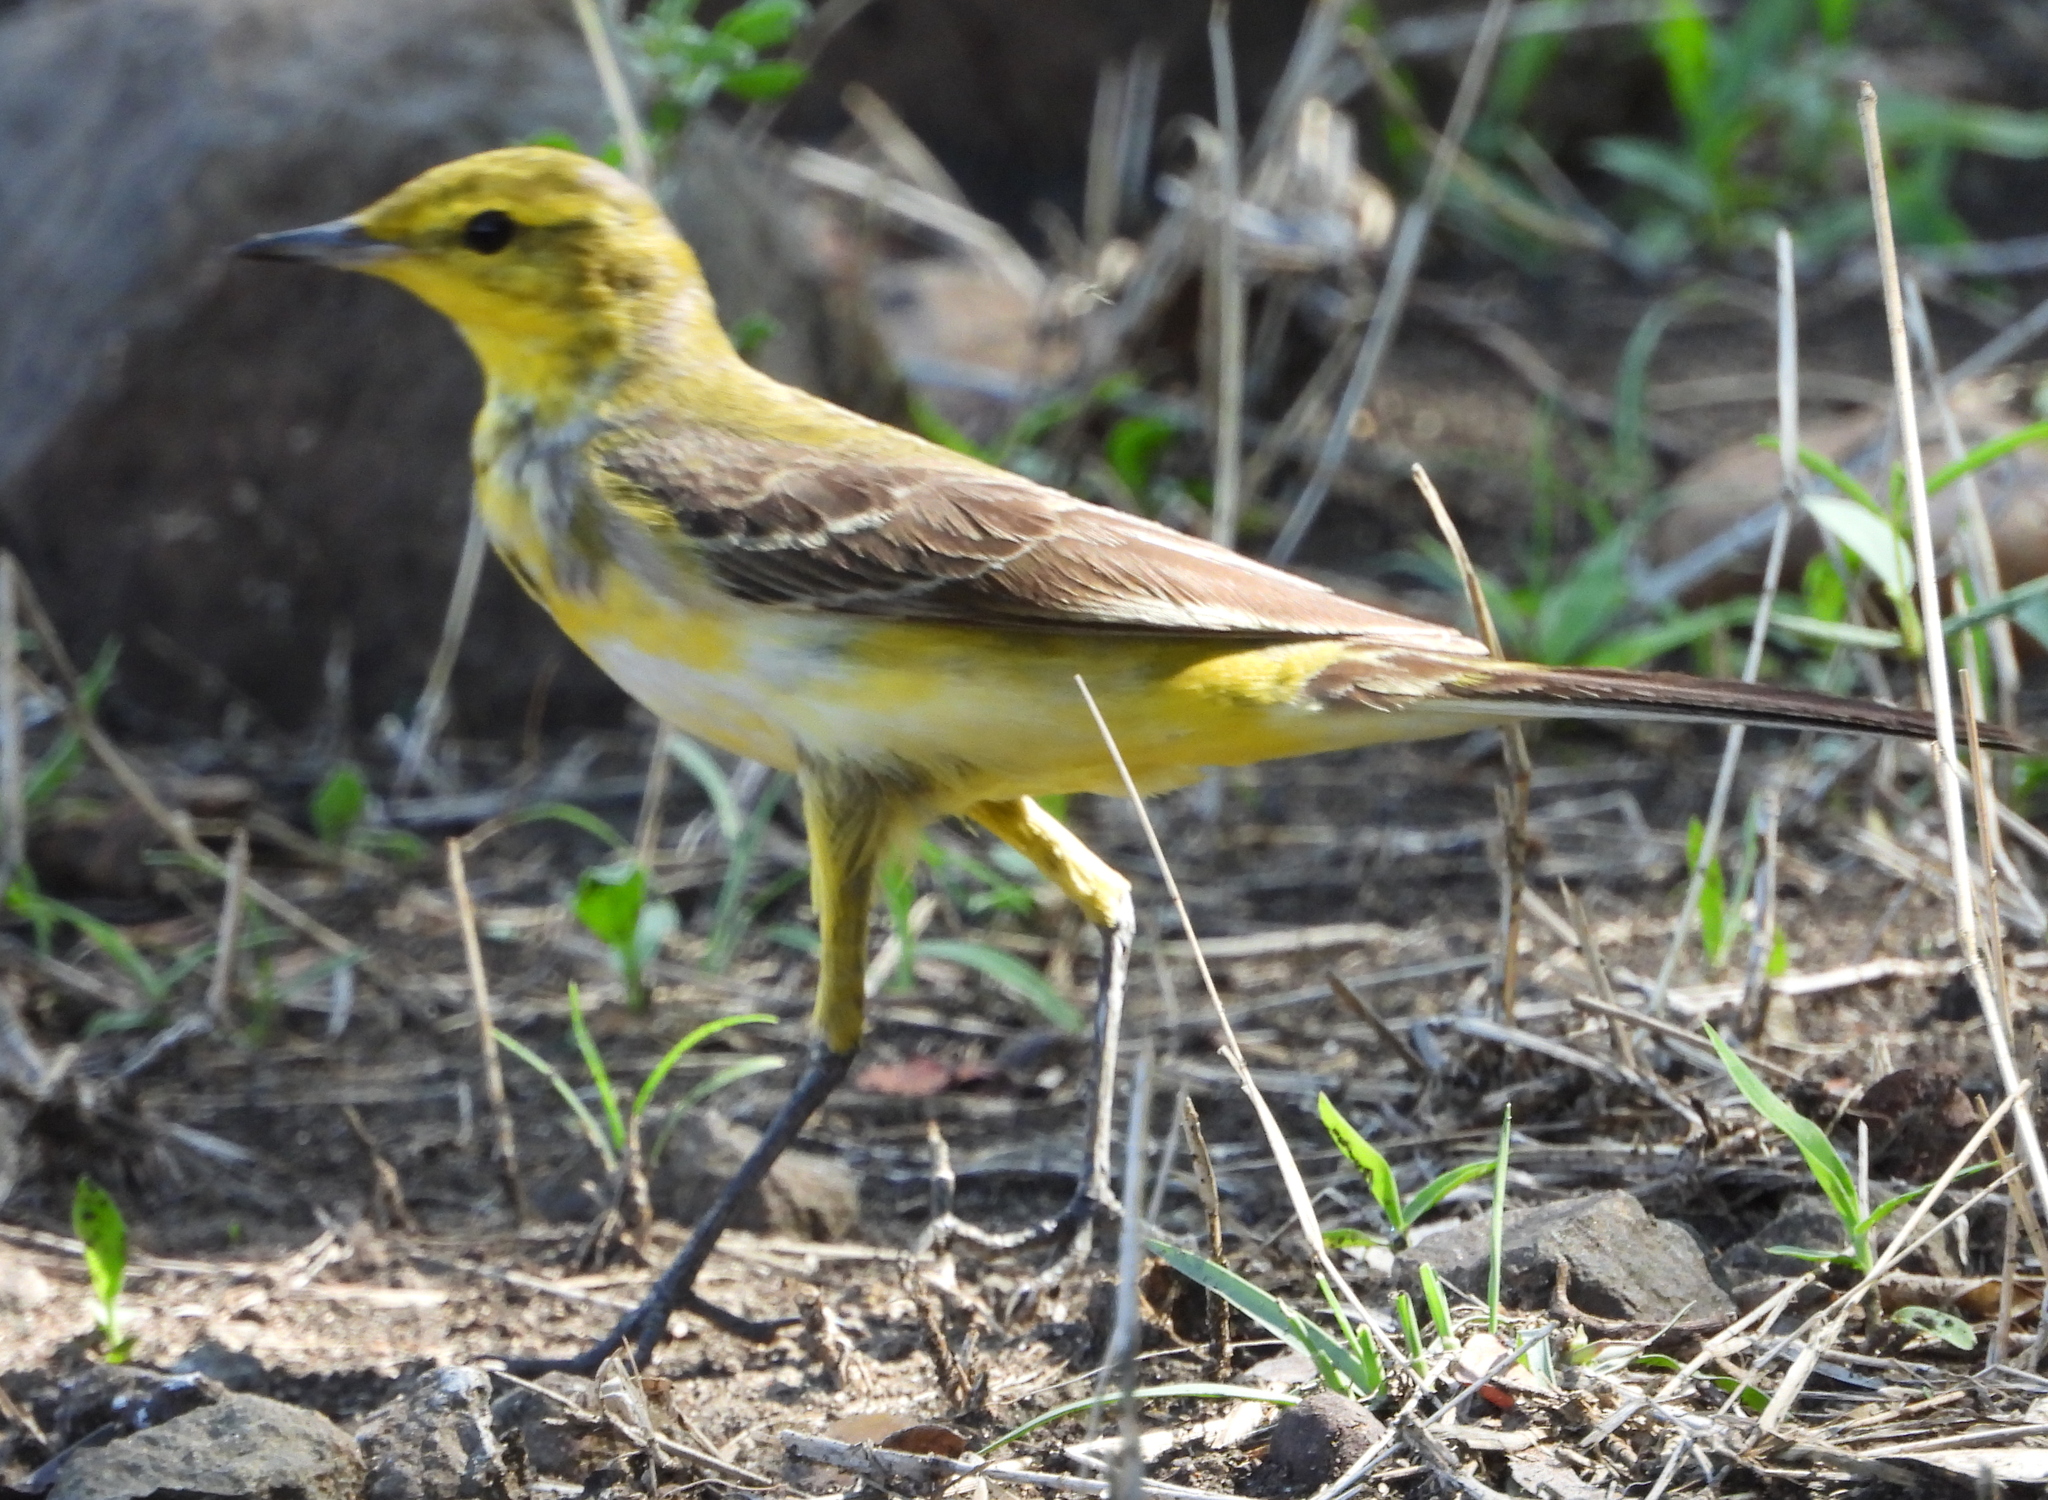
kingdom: Animalia
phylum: Chordata
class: Aves
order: Passeriformes
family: Motacillidae
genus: Motacilla
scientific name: Motacilla flava
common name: Western yellow wagtail
